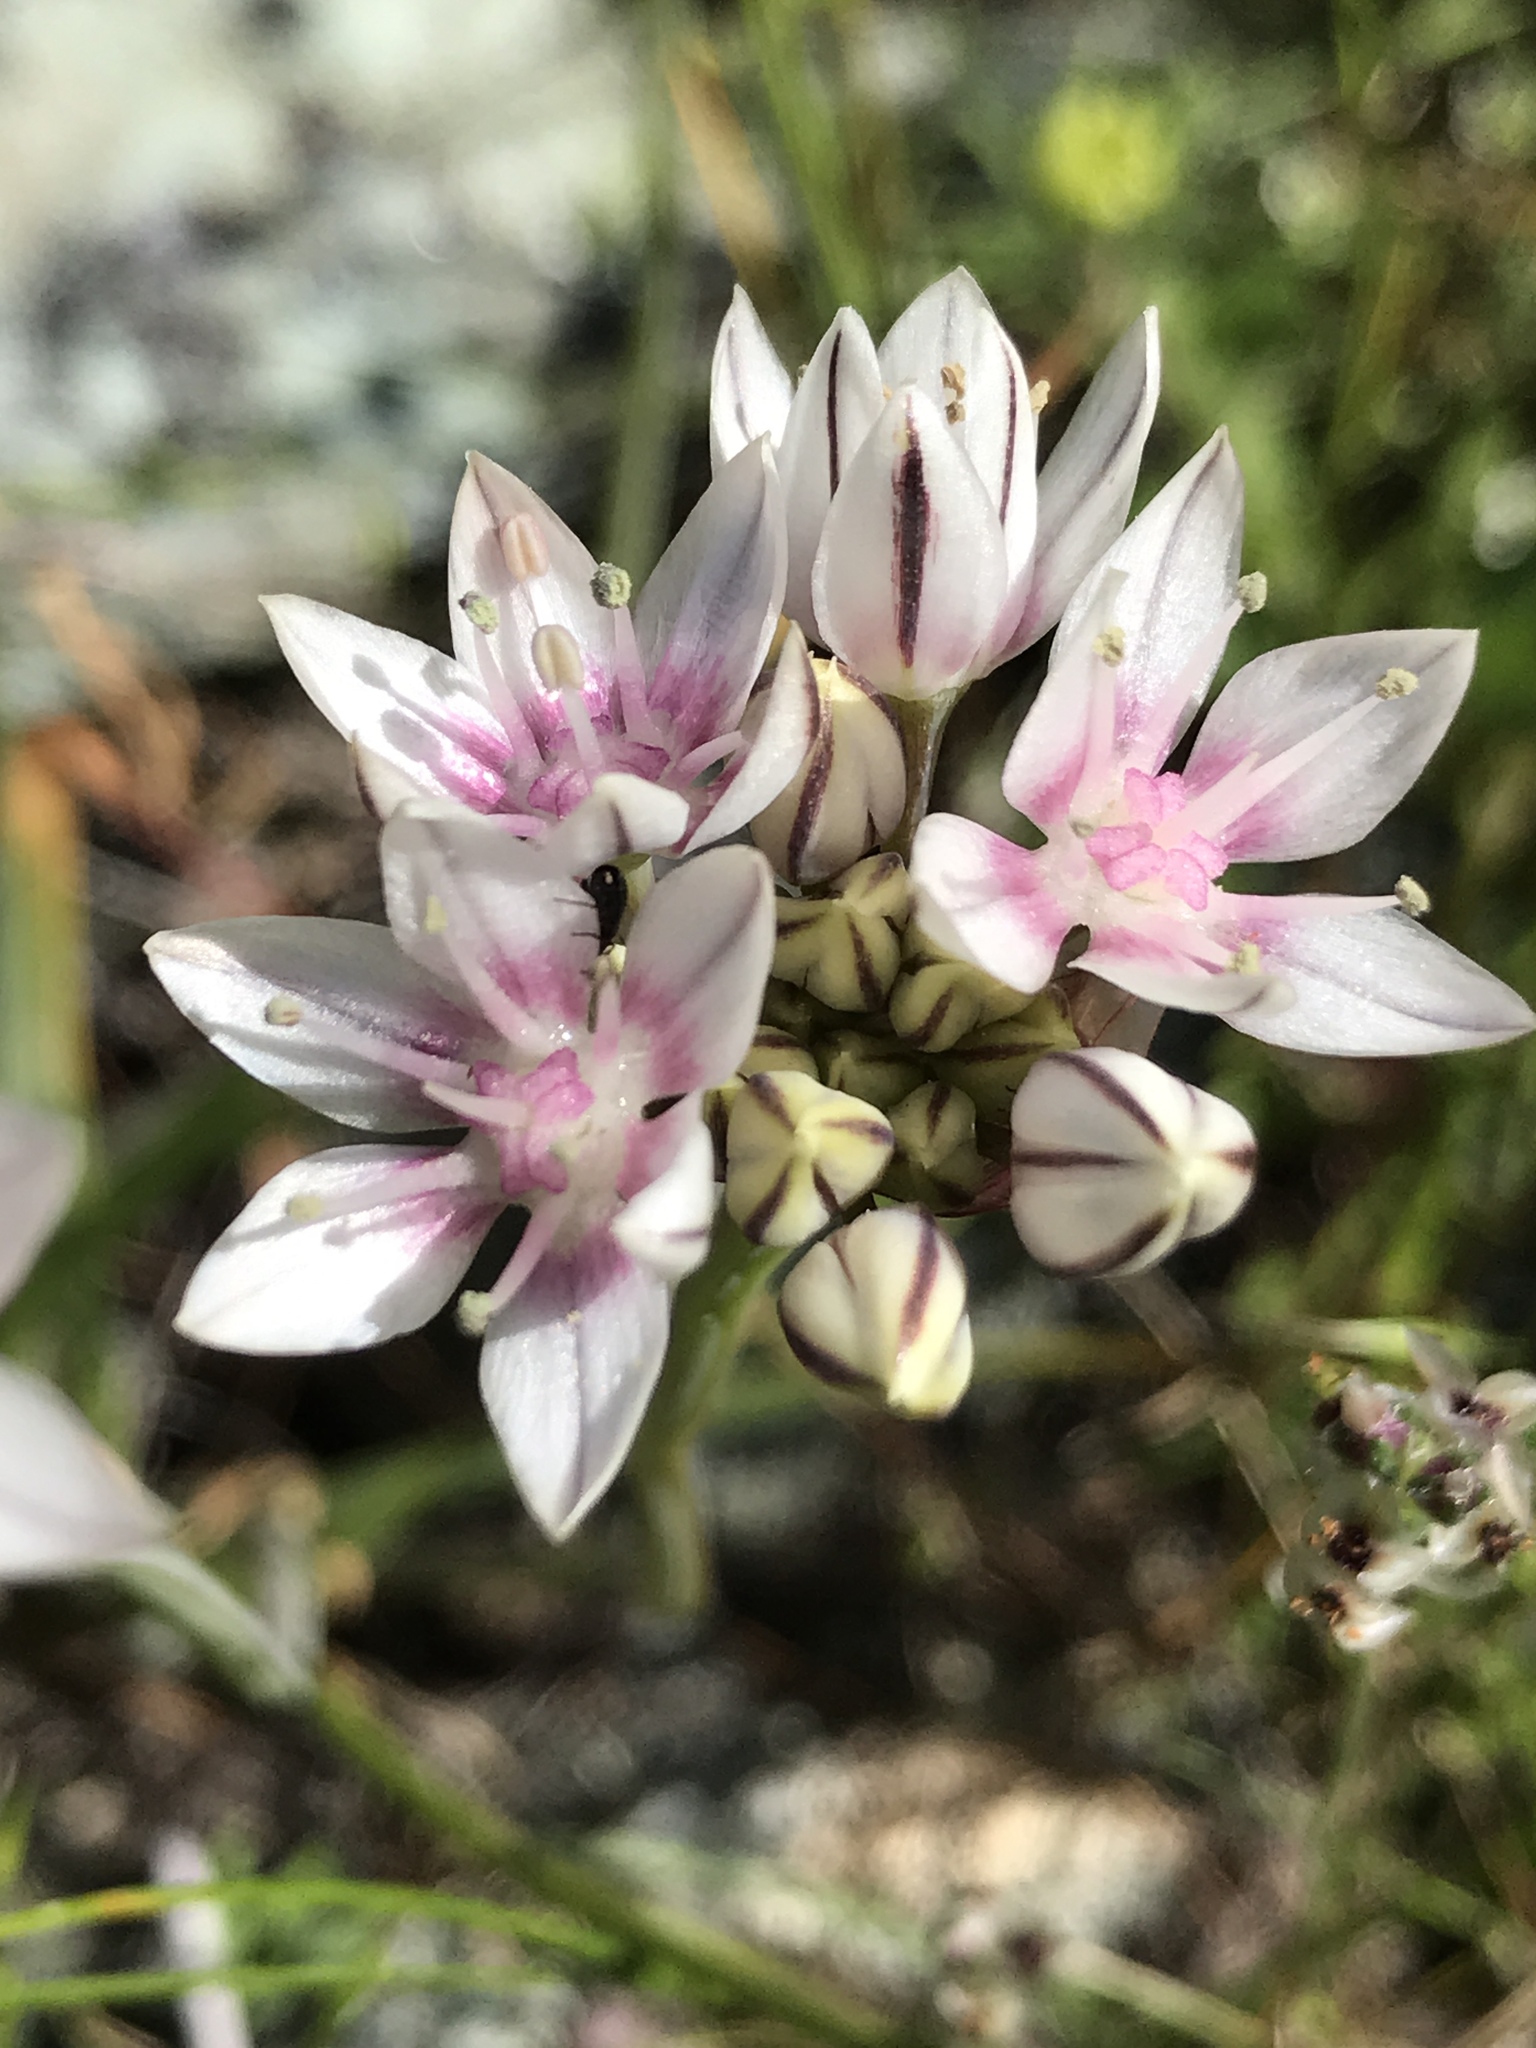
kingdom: Plantae
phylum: Tracheophyta
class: Liliopsida
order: Asparagales
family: Amaryllidaceae
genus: Allium
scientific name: Allium haematochiton
